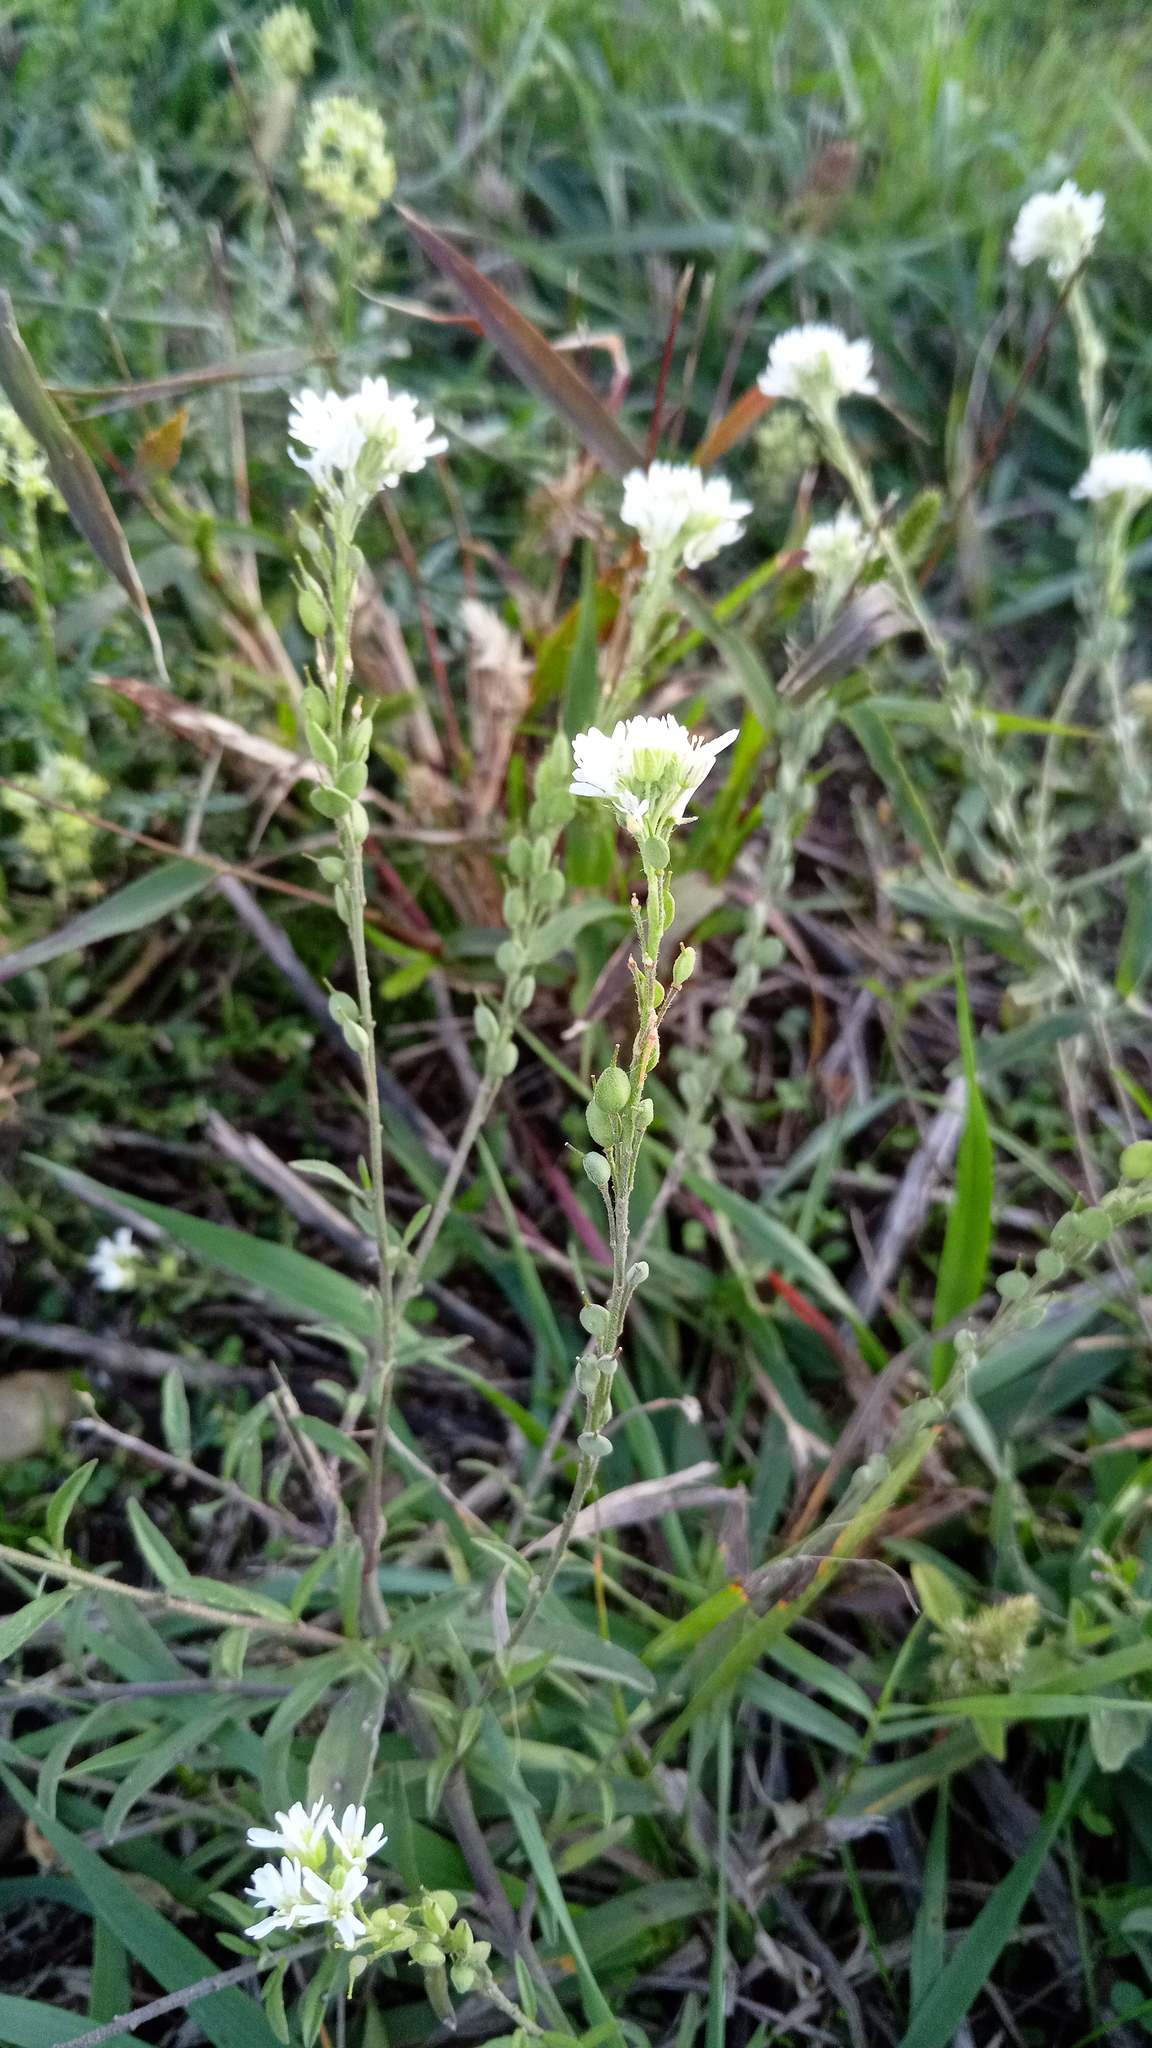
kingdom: Plantae
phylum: Tracheophyta
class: Magnoliopsida
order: Brassicales
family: Brassicaceae
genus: Berteroa
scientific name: Berteroa incana
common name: Hoary alison
